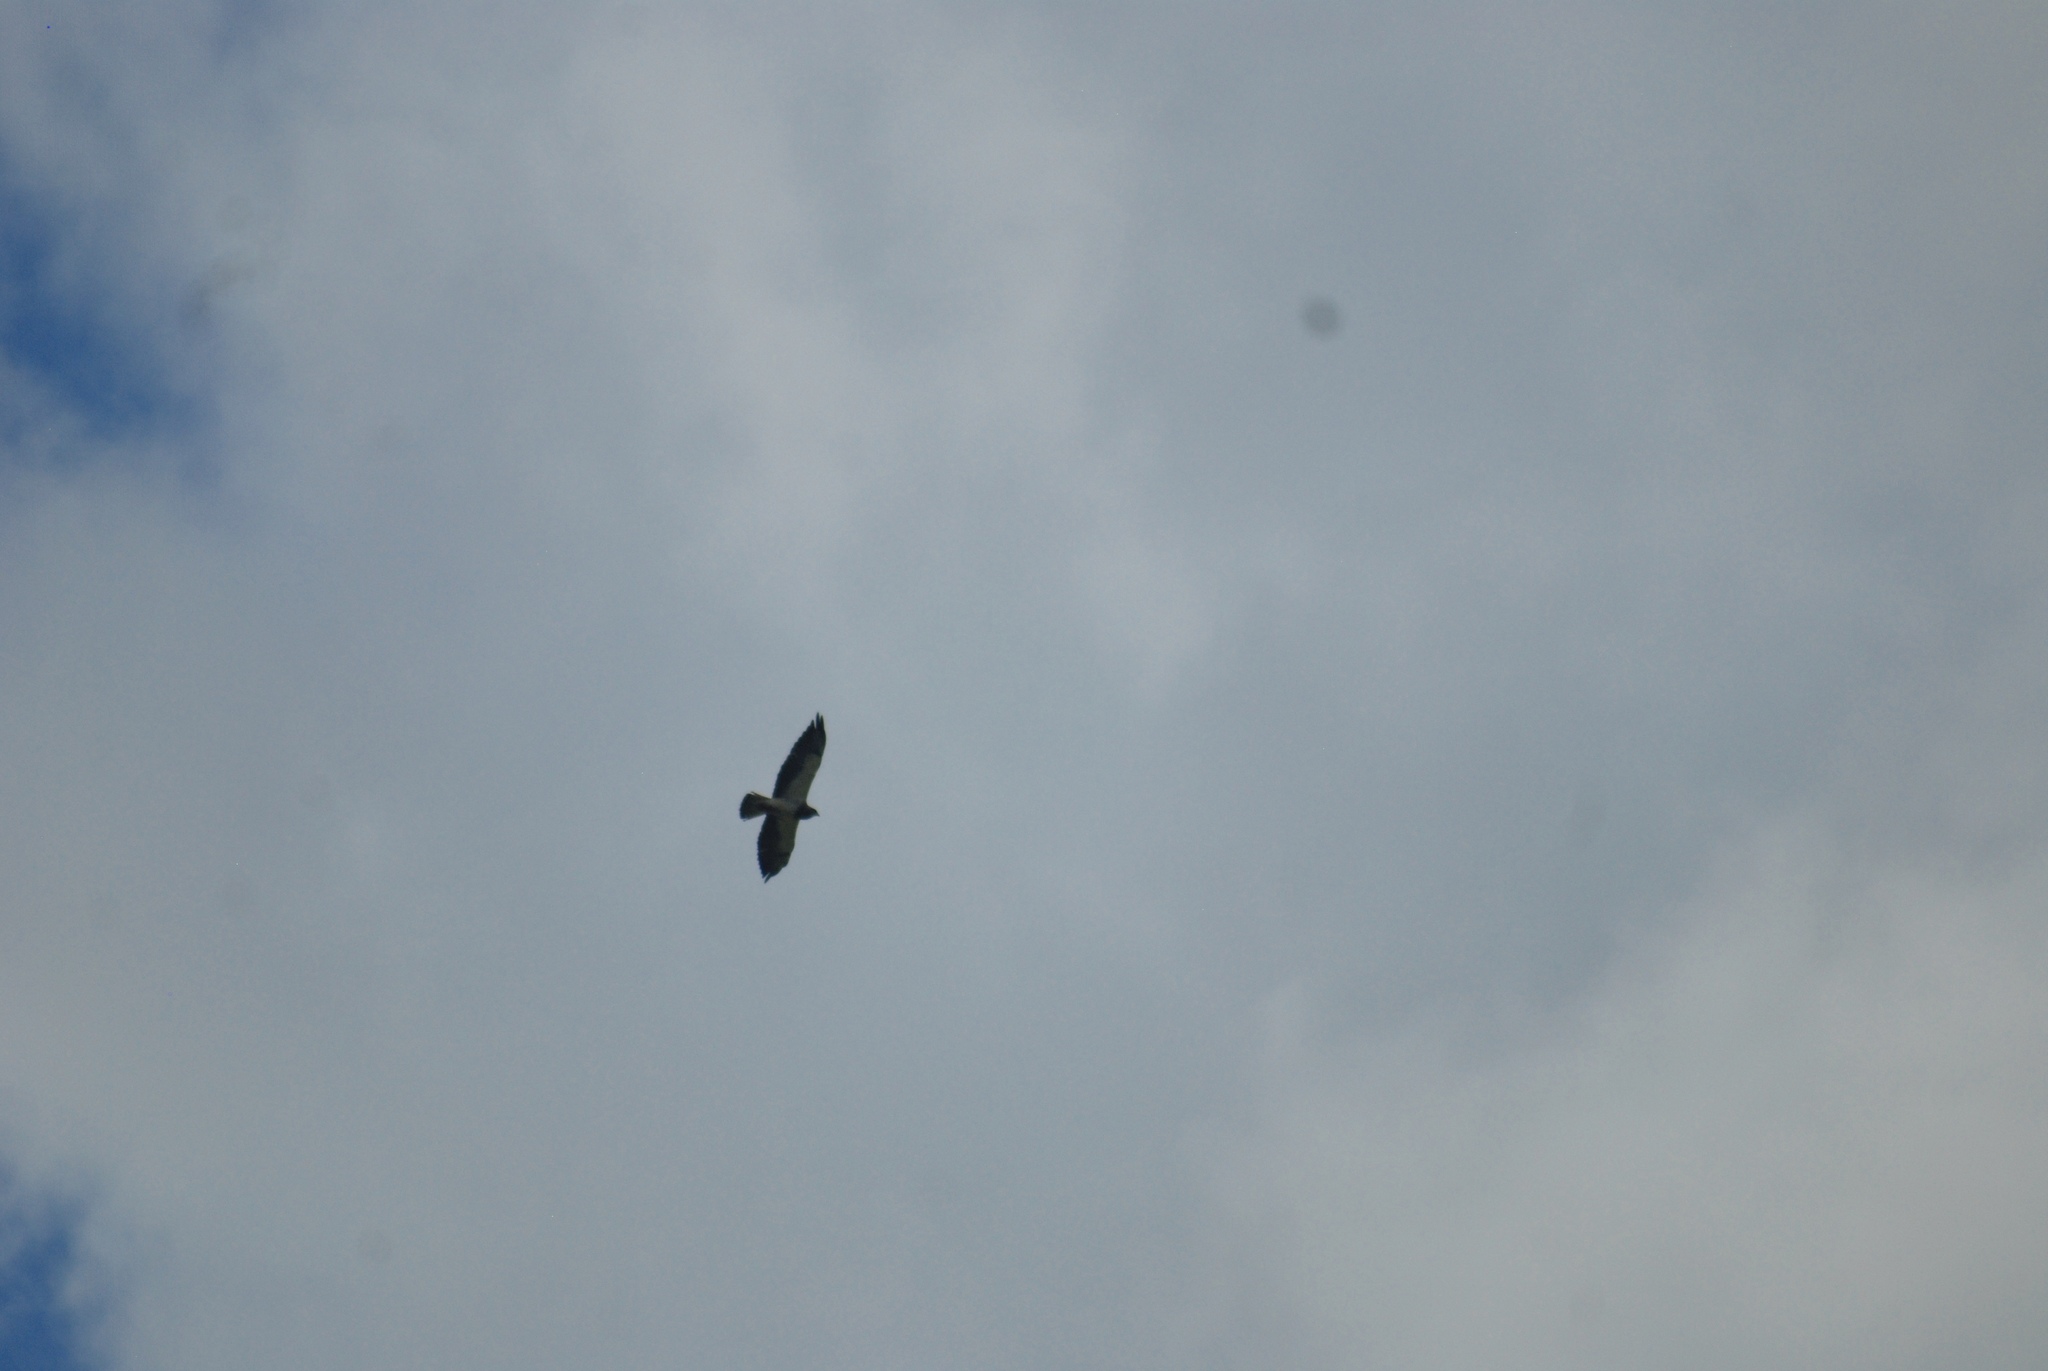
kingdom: Animalia
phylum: Chordata
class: Aves
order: Accipitriformes
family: Accipitridae
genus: Buteo
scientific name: Buteo swainsoni
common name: Swainson's hawk
